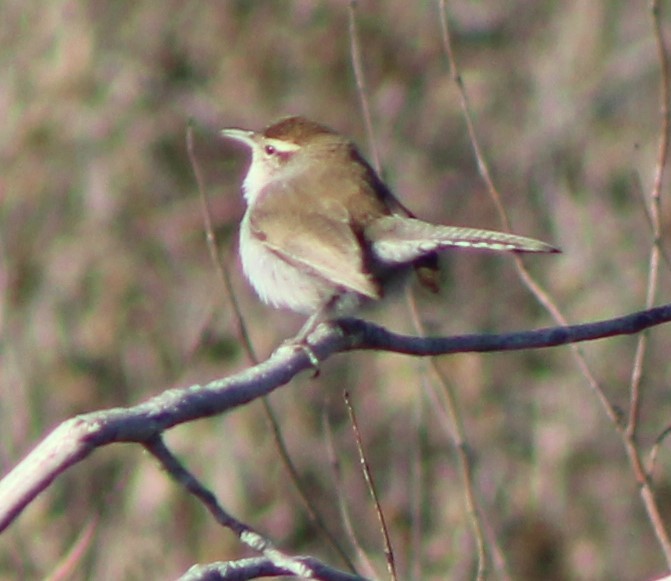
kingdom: Animalia
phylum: Chordata
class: Aves
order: Passeriformes
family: Troglodytidae
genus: Thryomanes
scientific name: Thryomanes bewickii
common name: Bewick's wren
